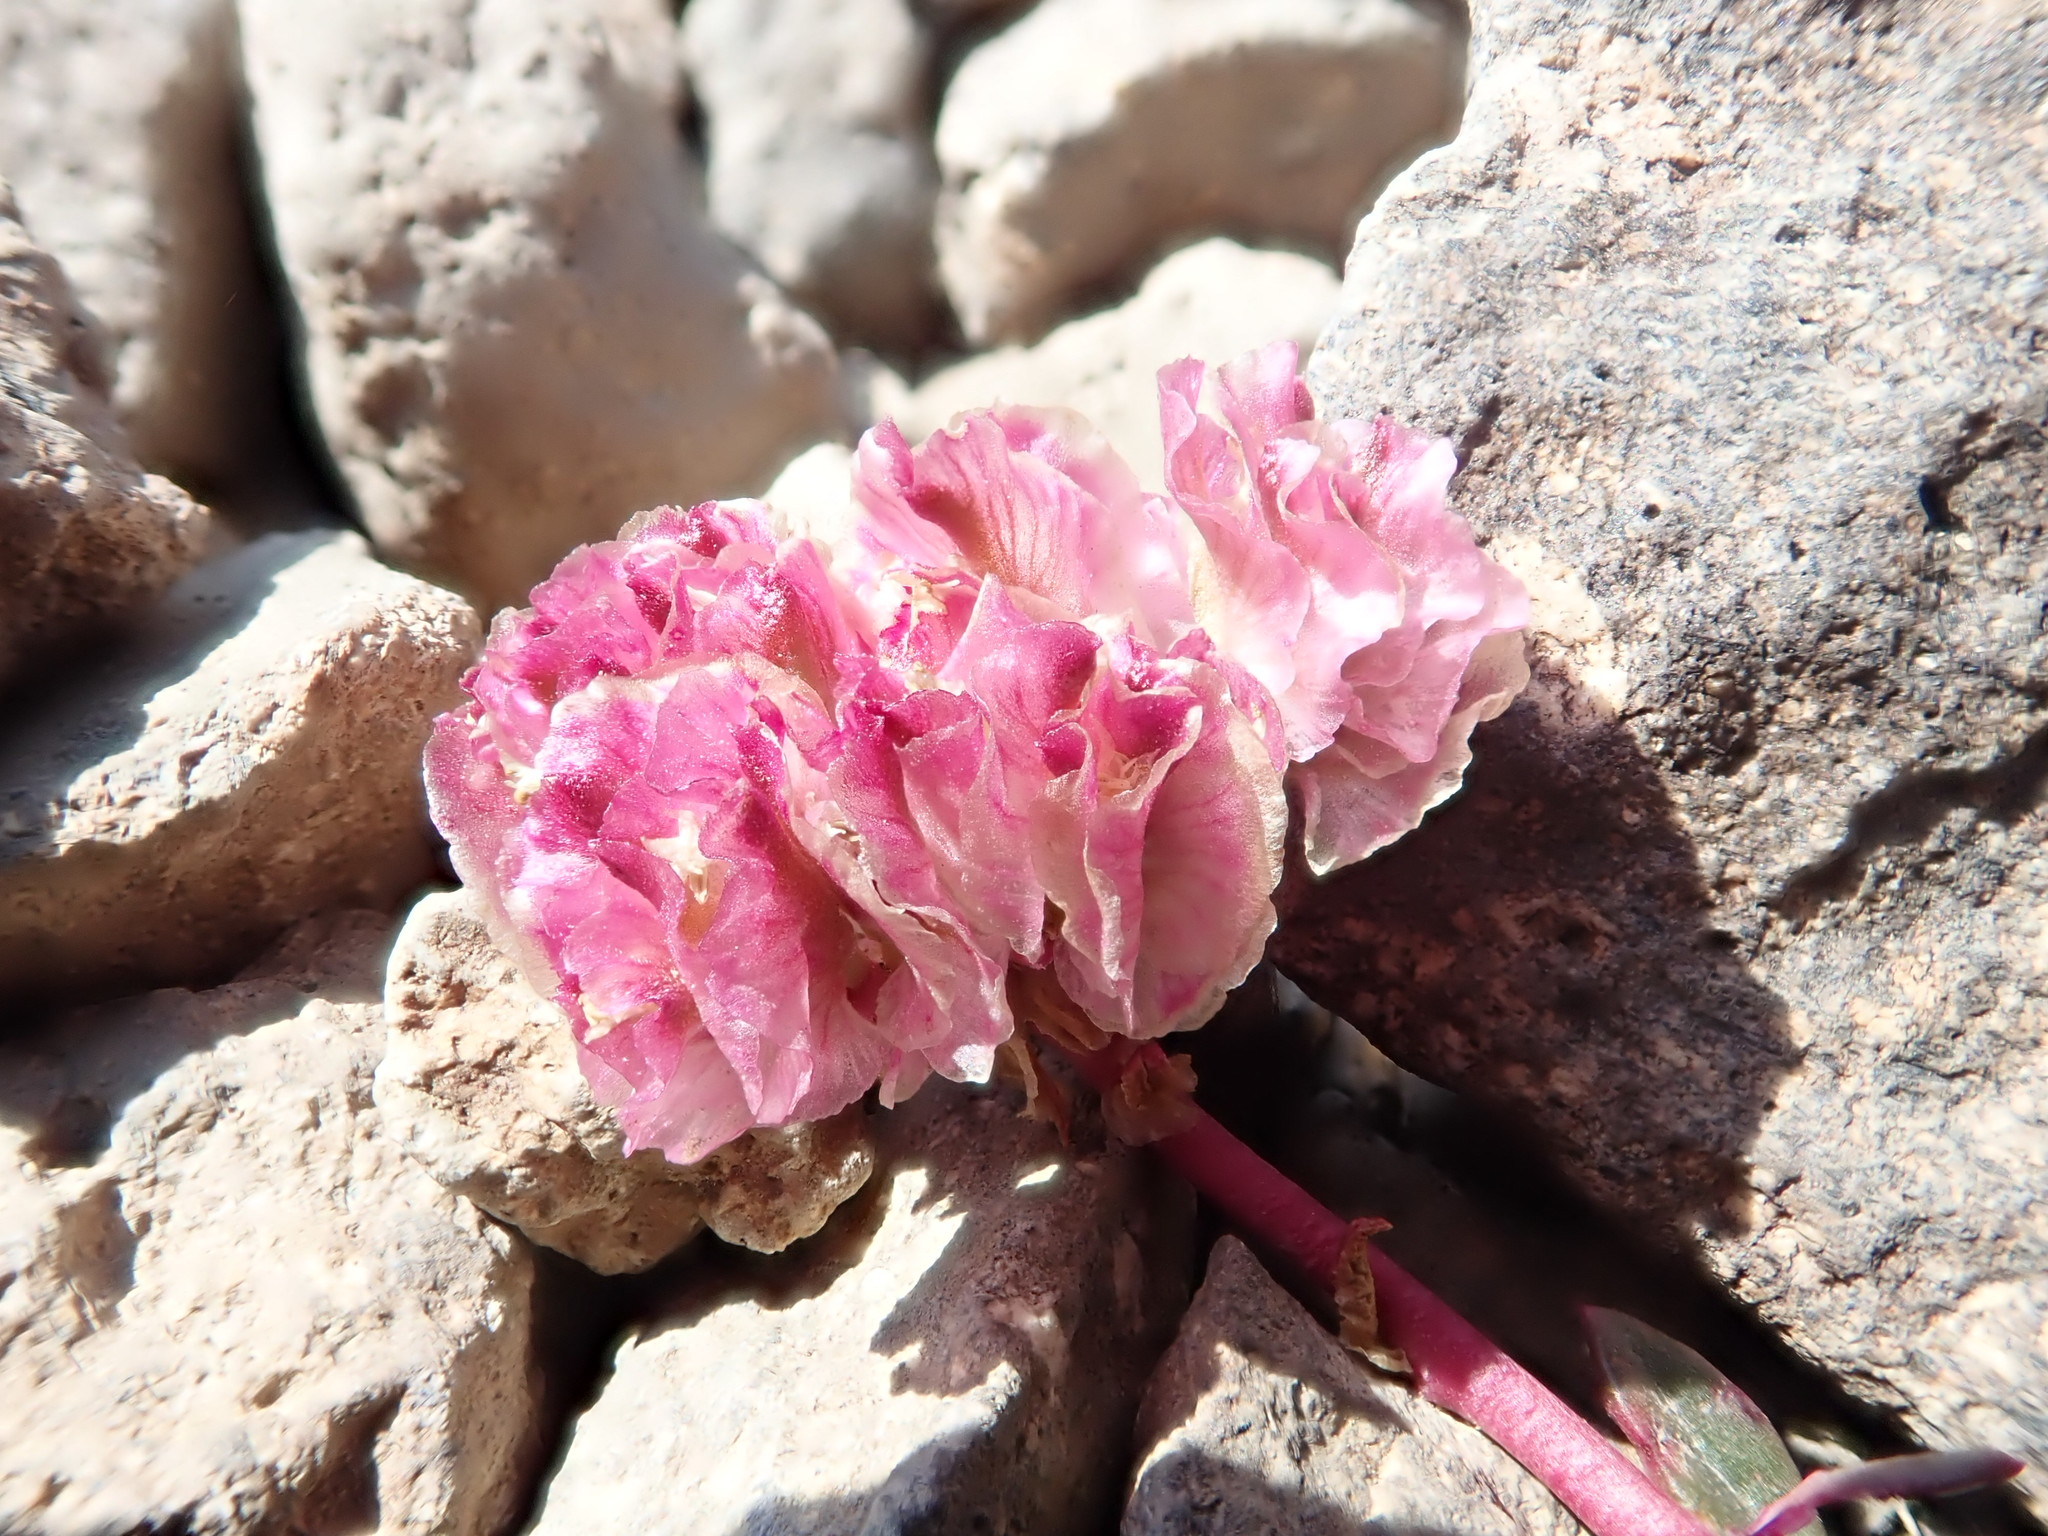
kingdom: Plantae
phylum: Tracheophyta
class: Magnoliopsida
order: Caryophyllales
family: Montiaceae
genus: Calyptridium
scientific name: Calyptridium umbellatum
